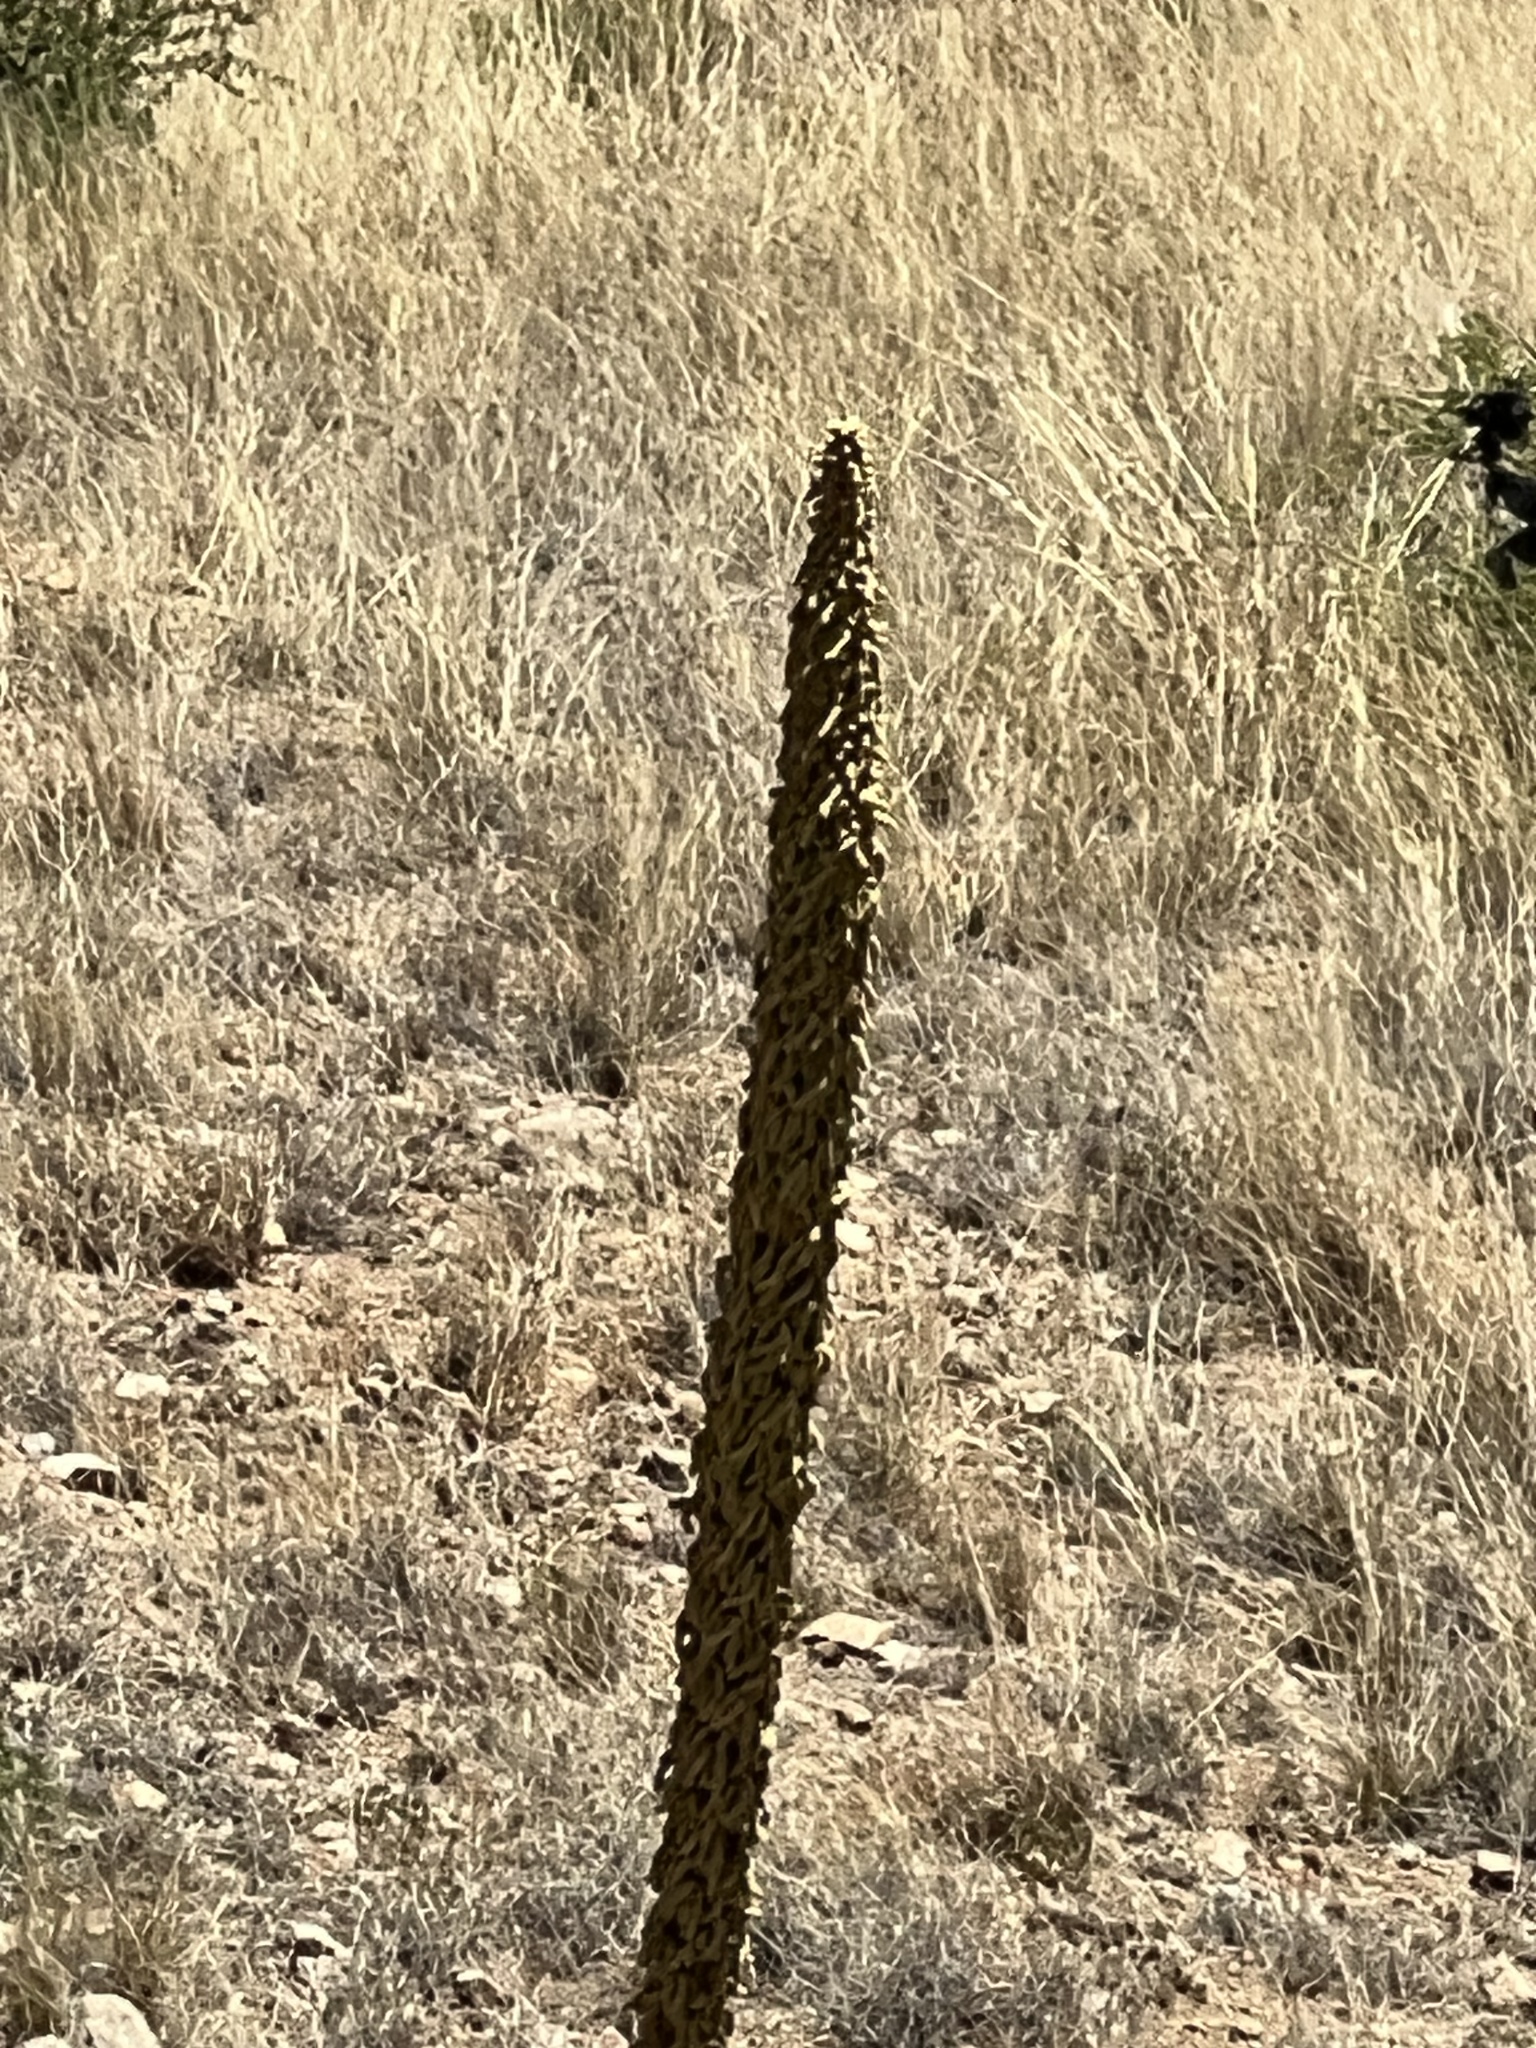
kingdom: Plantae
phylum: Tracheophyta
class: Liliopsida
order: Asparagales
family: Asparagaceae
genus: Dasylirion
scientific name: Dasylirion wheeleri
